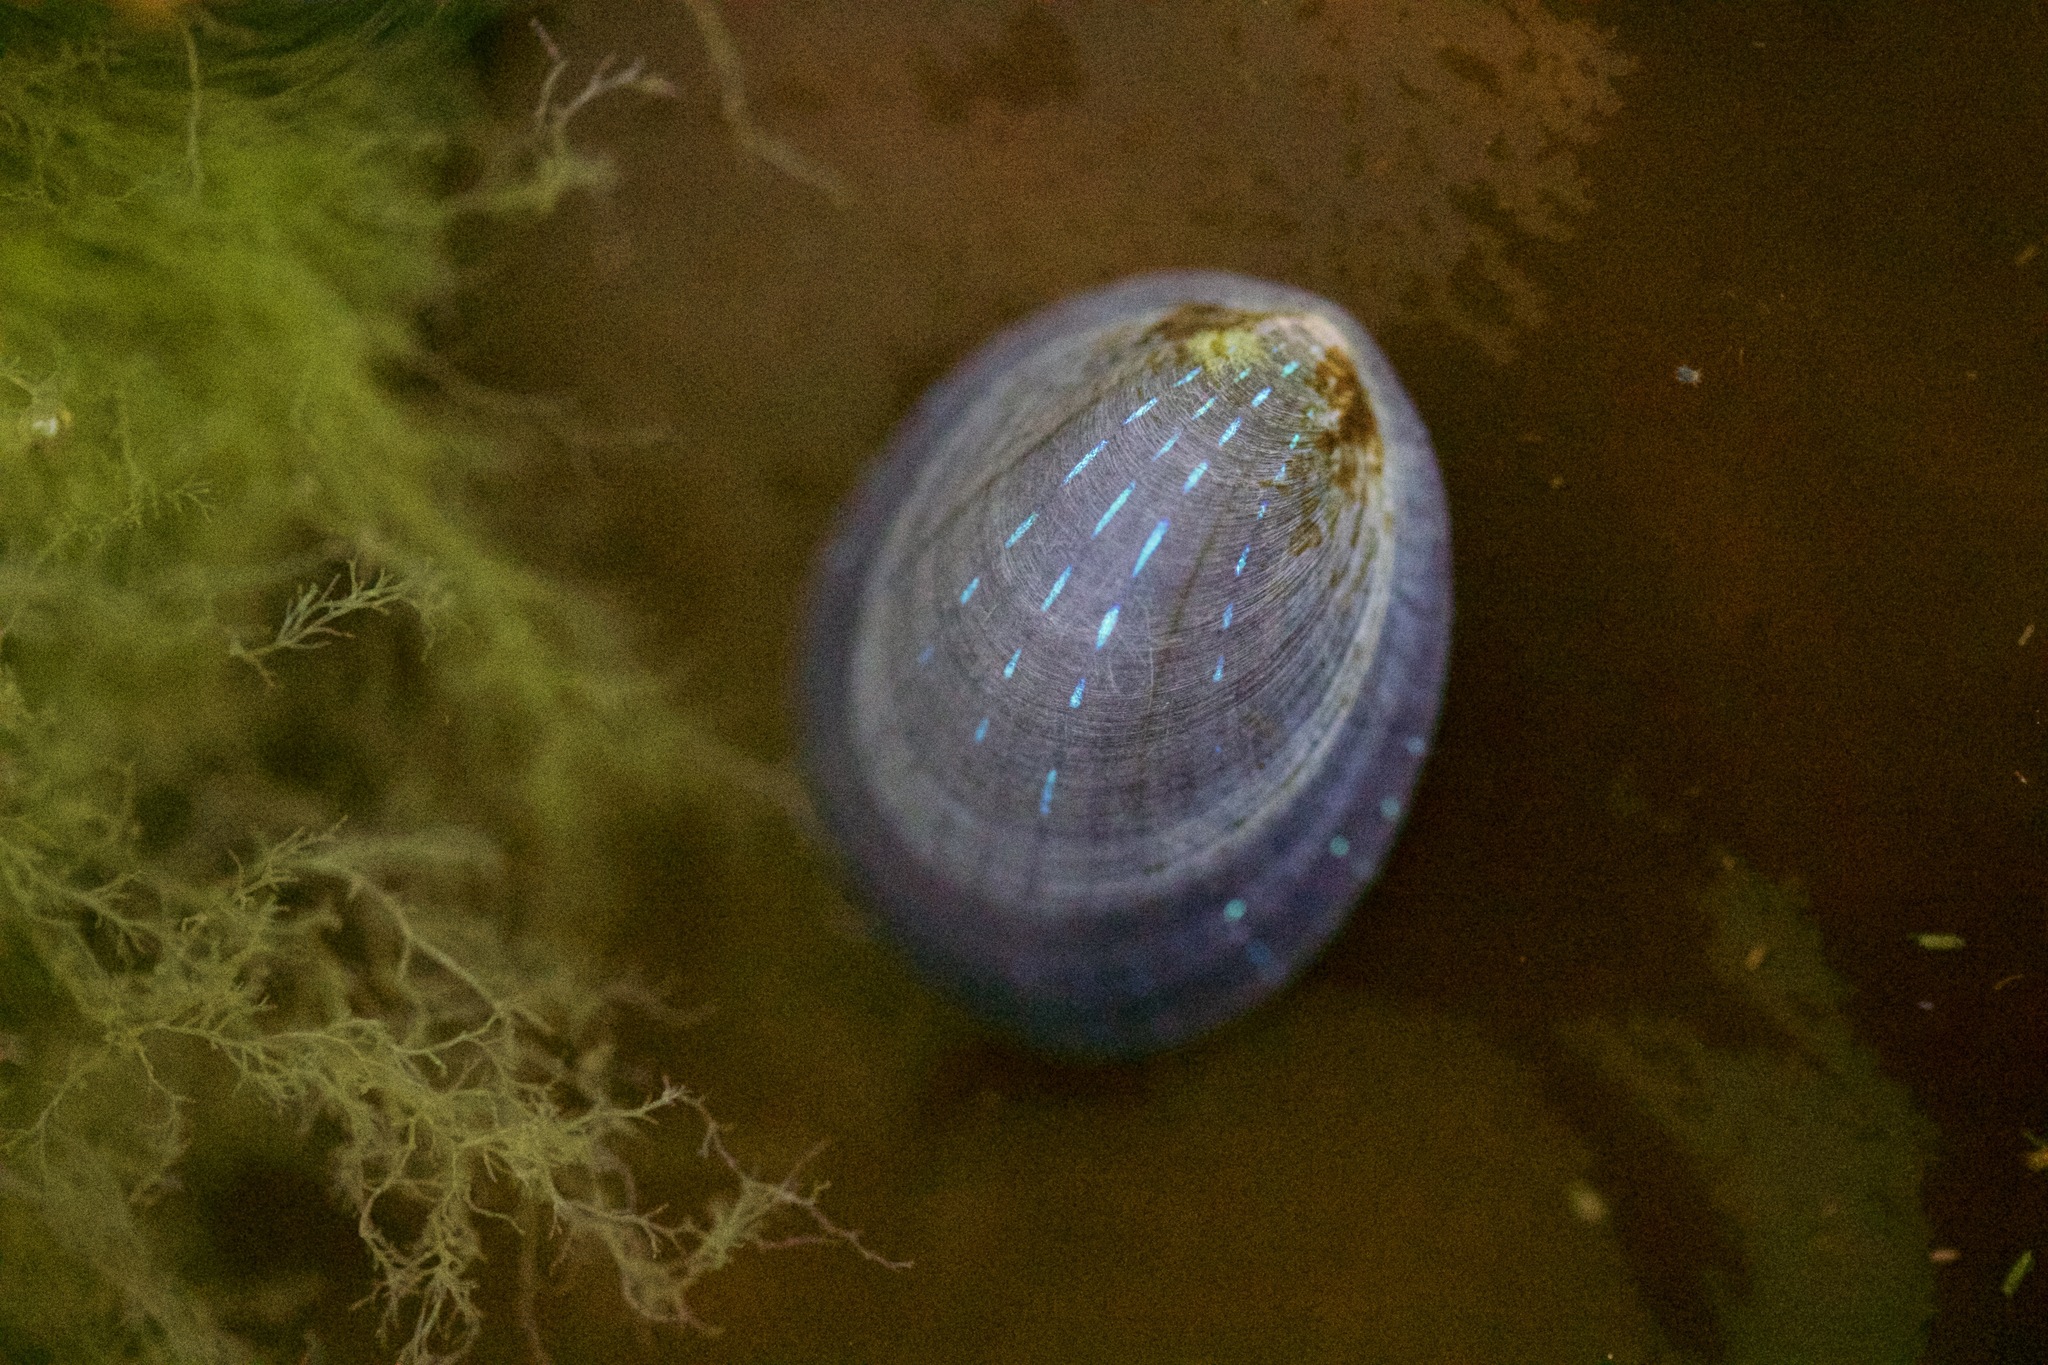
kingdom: Animalia
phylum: Mollusca
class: Gastropoda
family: Patellidae
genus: Patella
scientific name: Patella pellucida
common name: Blue-rayed limpet
